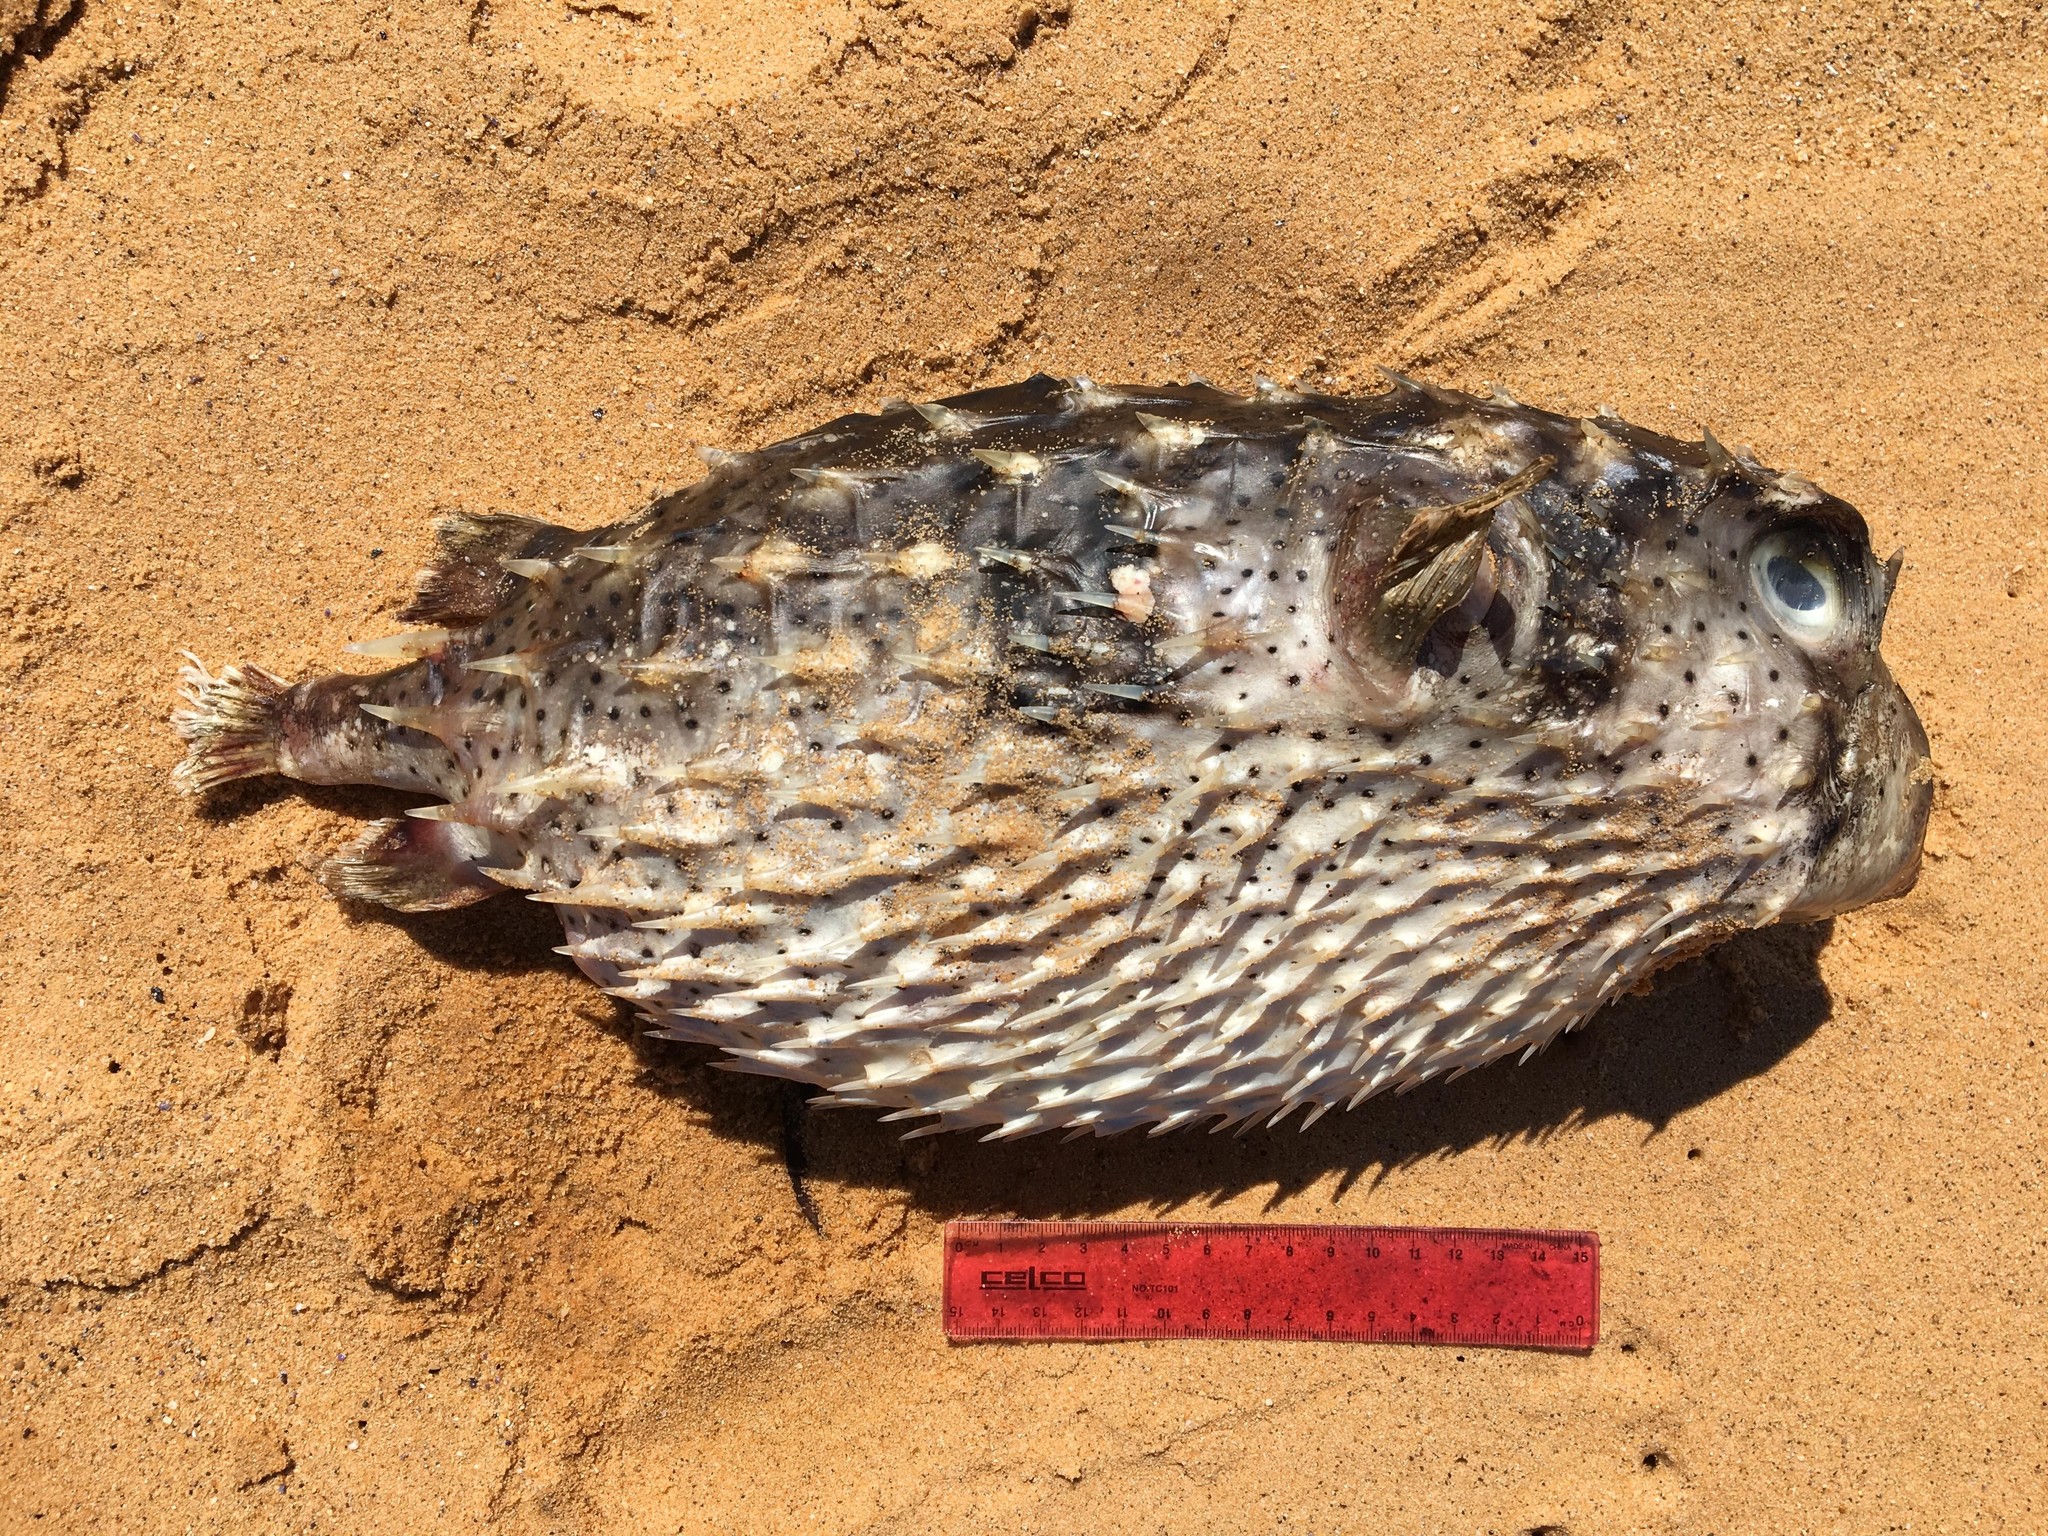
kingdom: Animalia
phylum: Chordata
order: Tetraodontiformes
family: Diodontidae
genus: Dicotylichthys
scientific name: Dicotylichthys punctulatus
